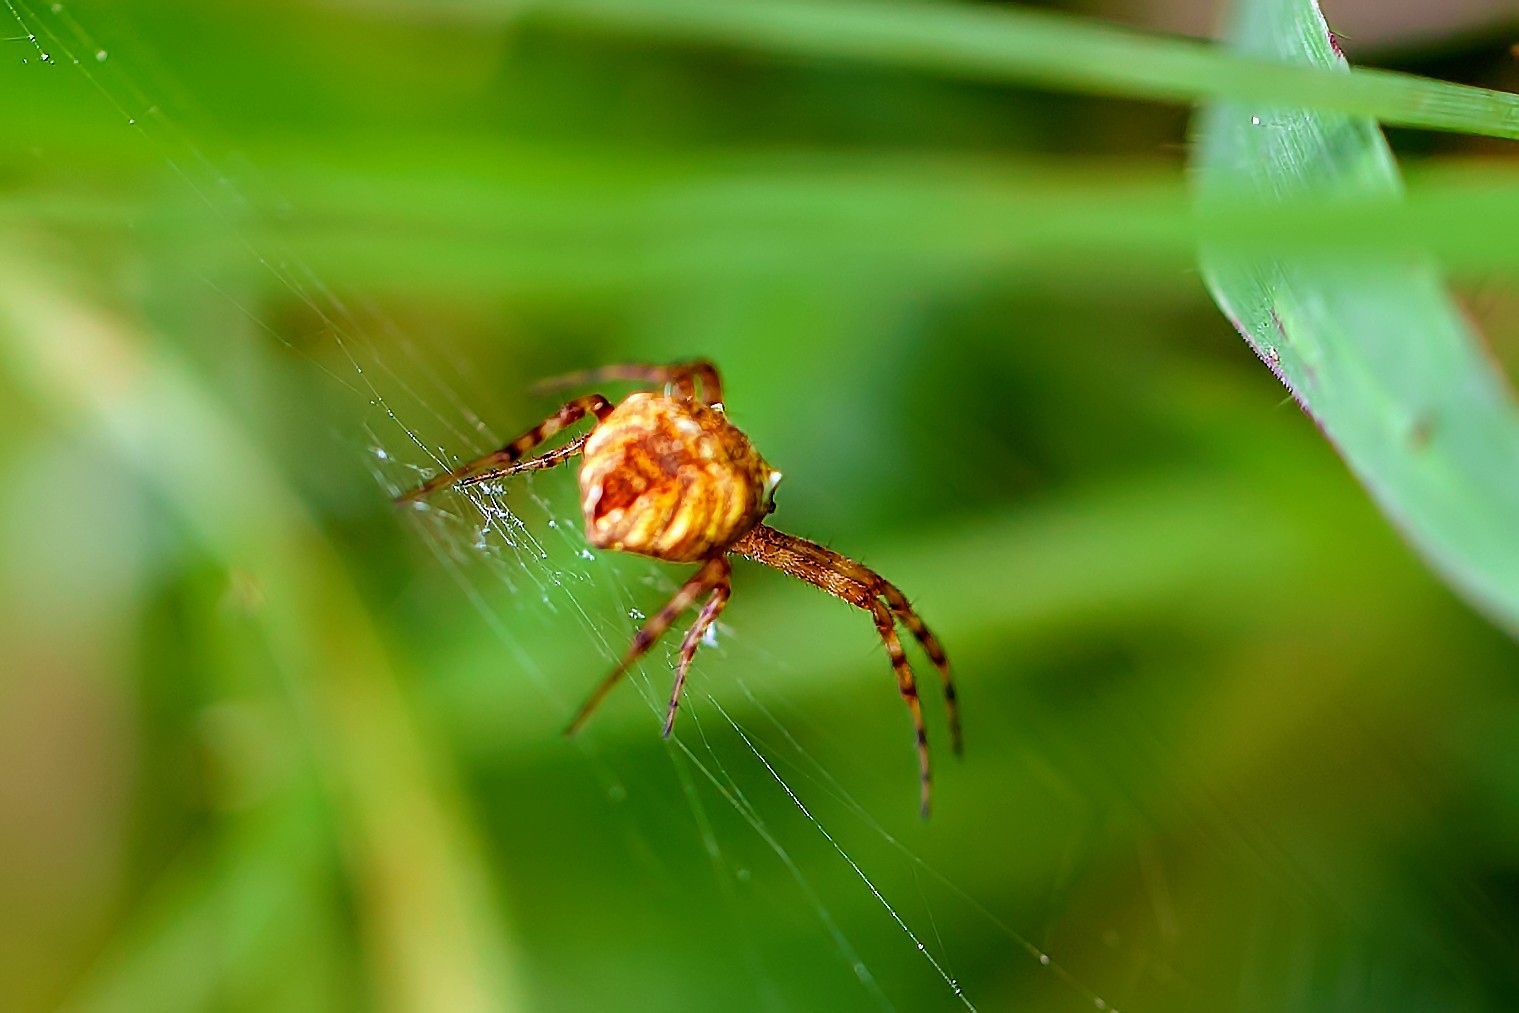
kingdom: Animalia
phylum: Arthropoda
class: Arachnida
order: Araneae
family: Araneidae
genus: Gea
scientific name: Gea heptagon
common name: Orb weavers
